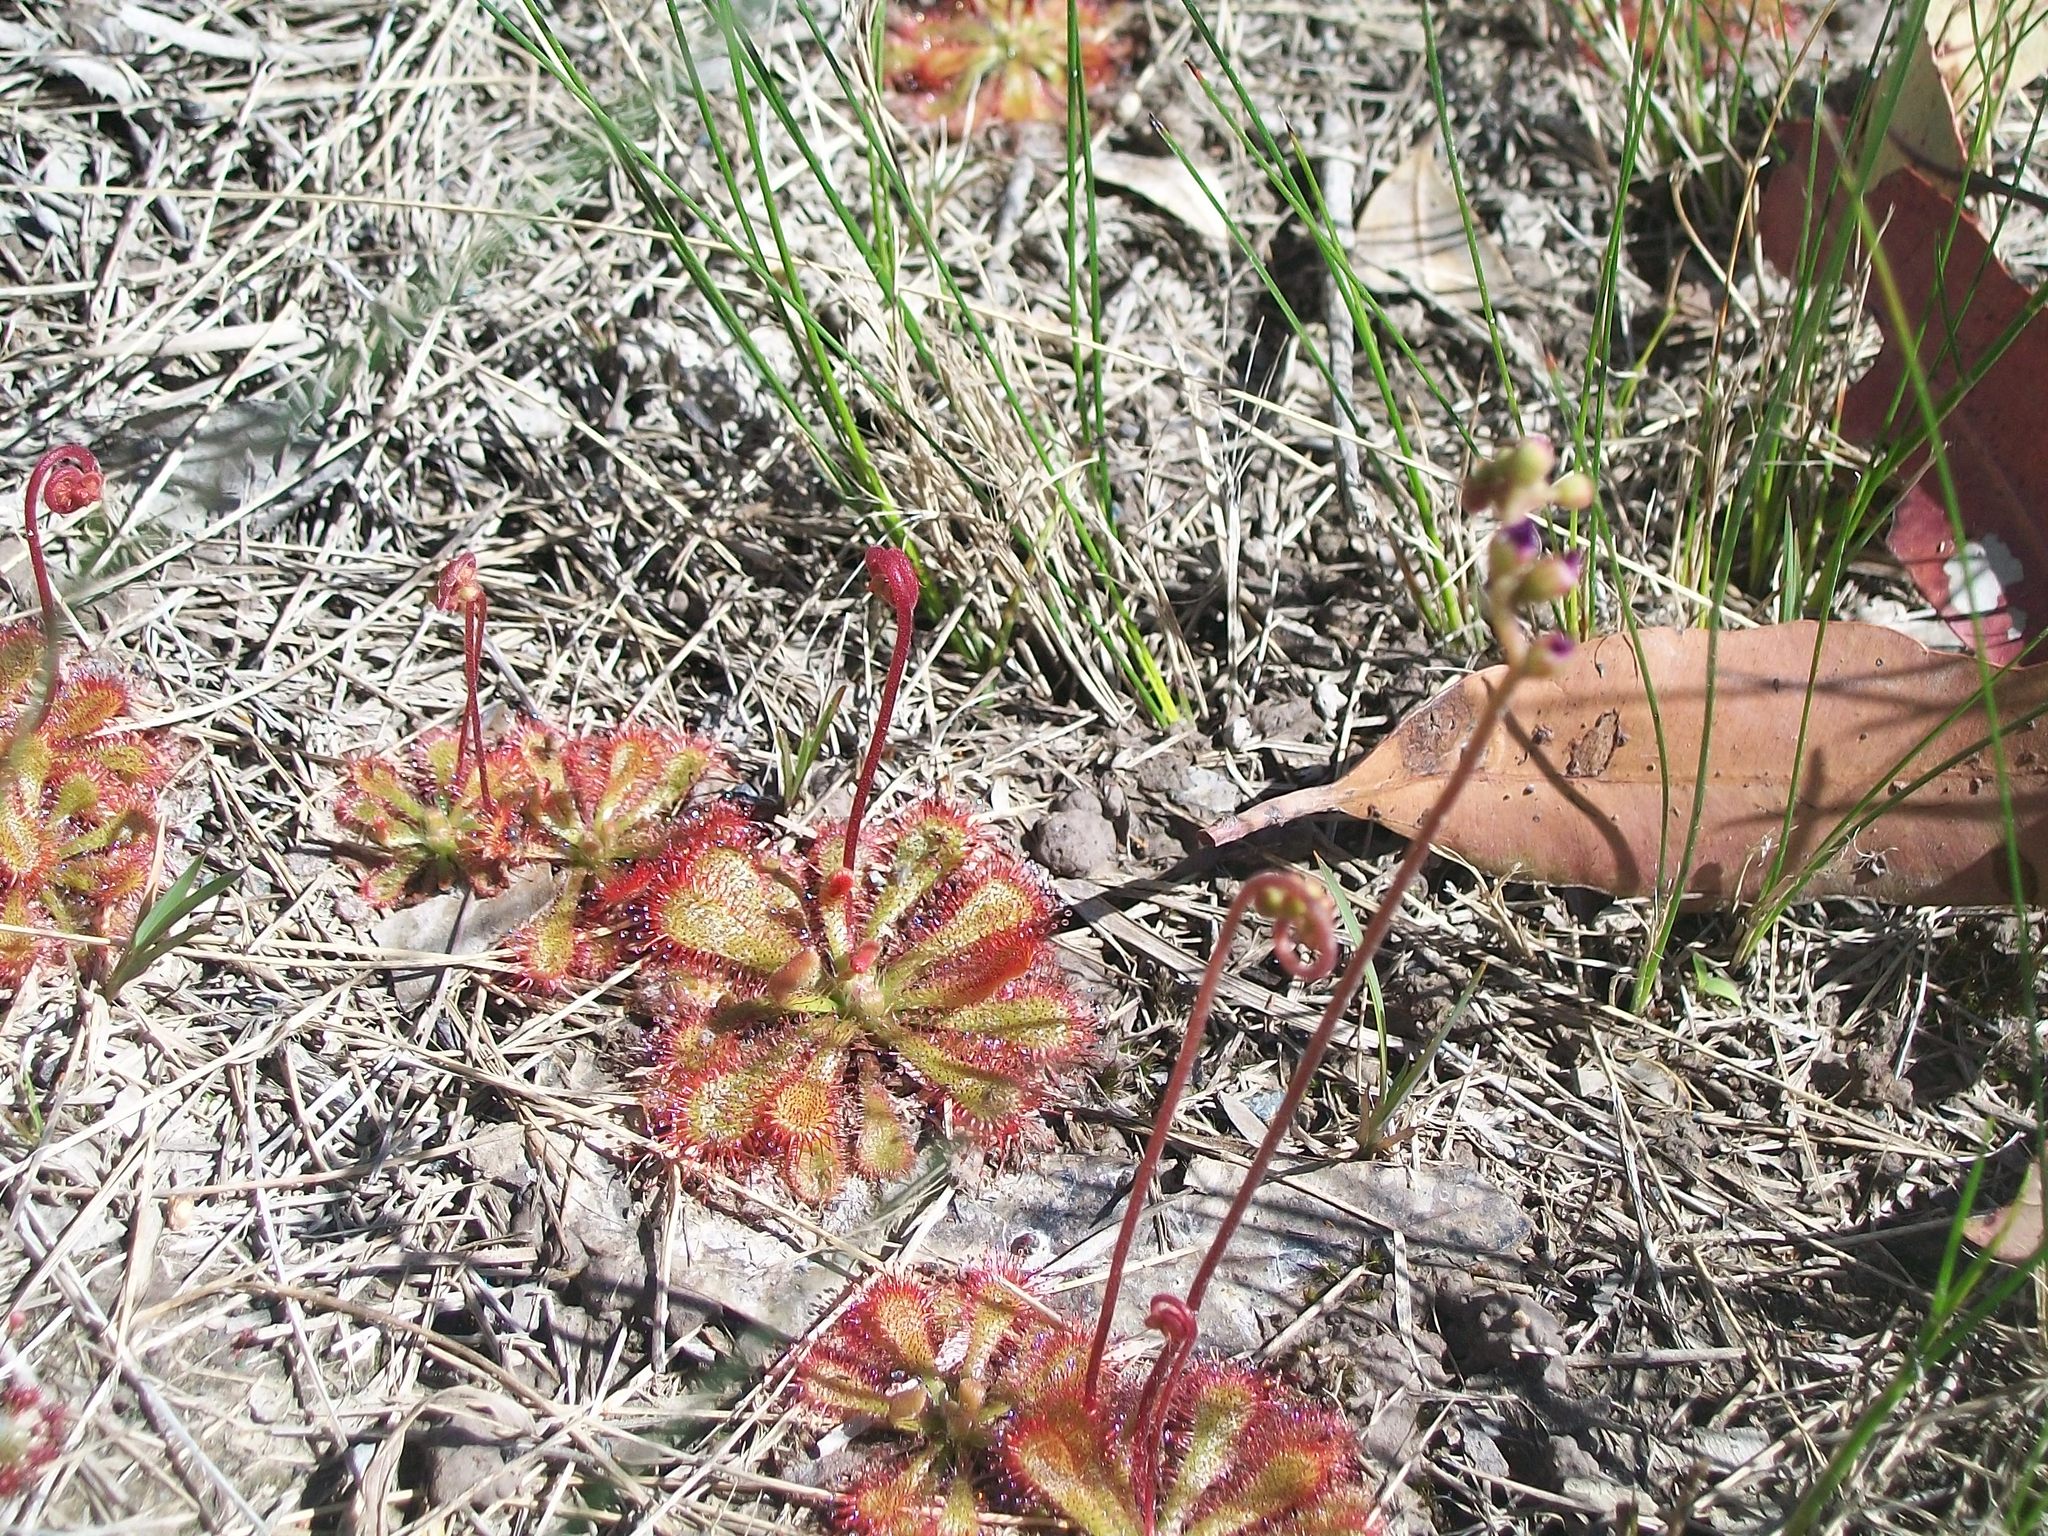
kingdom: Plantae
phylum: Tracheophyta
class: Magnoliopsida
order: Caryophyllales
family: Droseraceae
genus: Drosera
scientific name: Drosera spatulata
